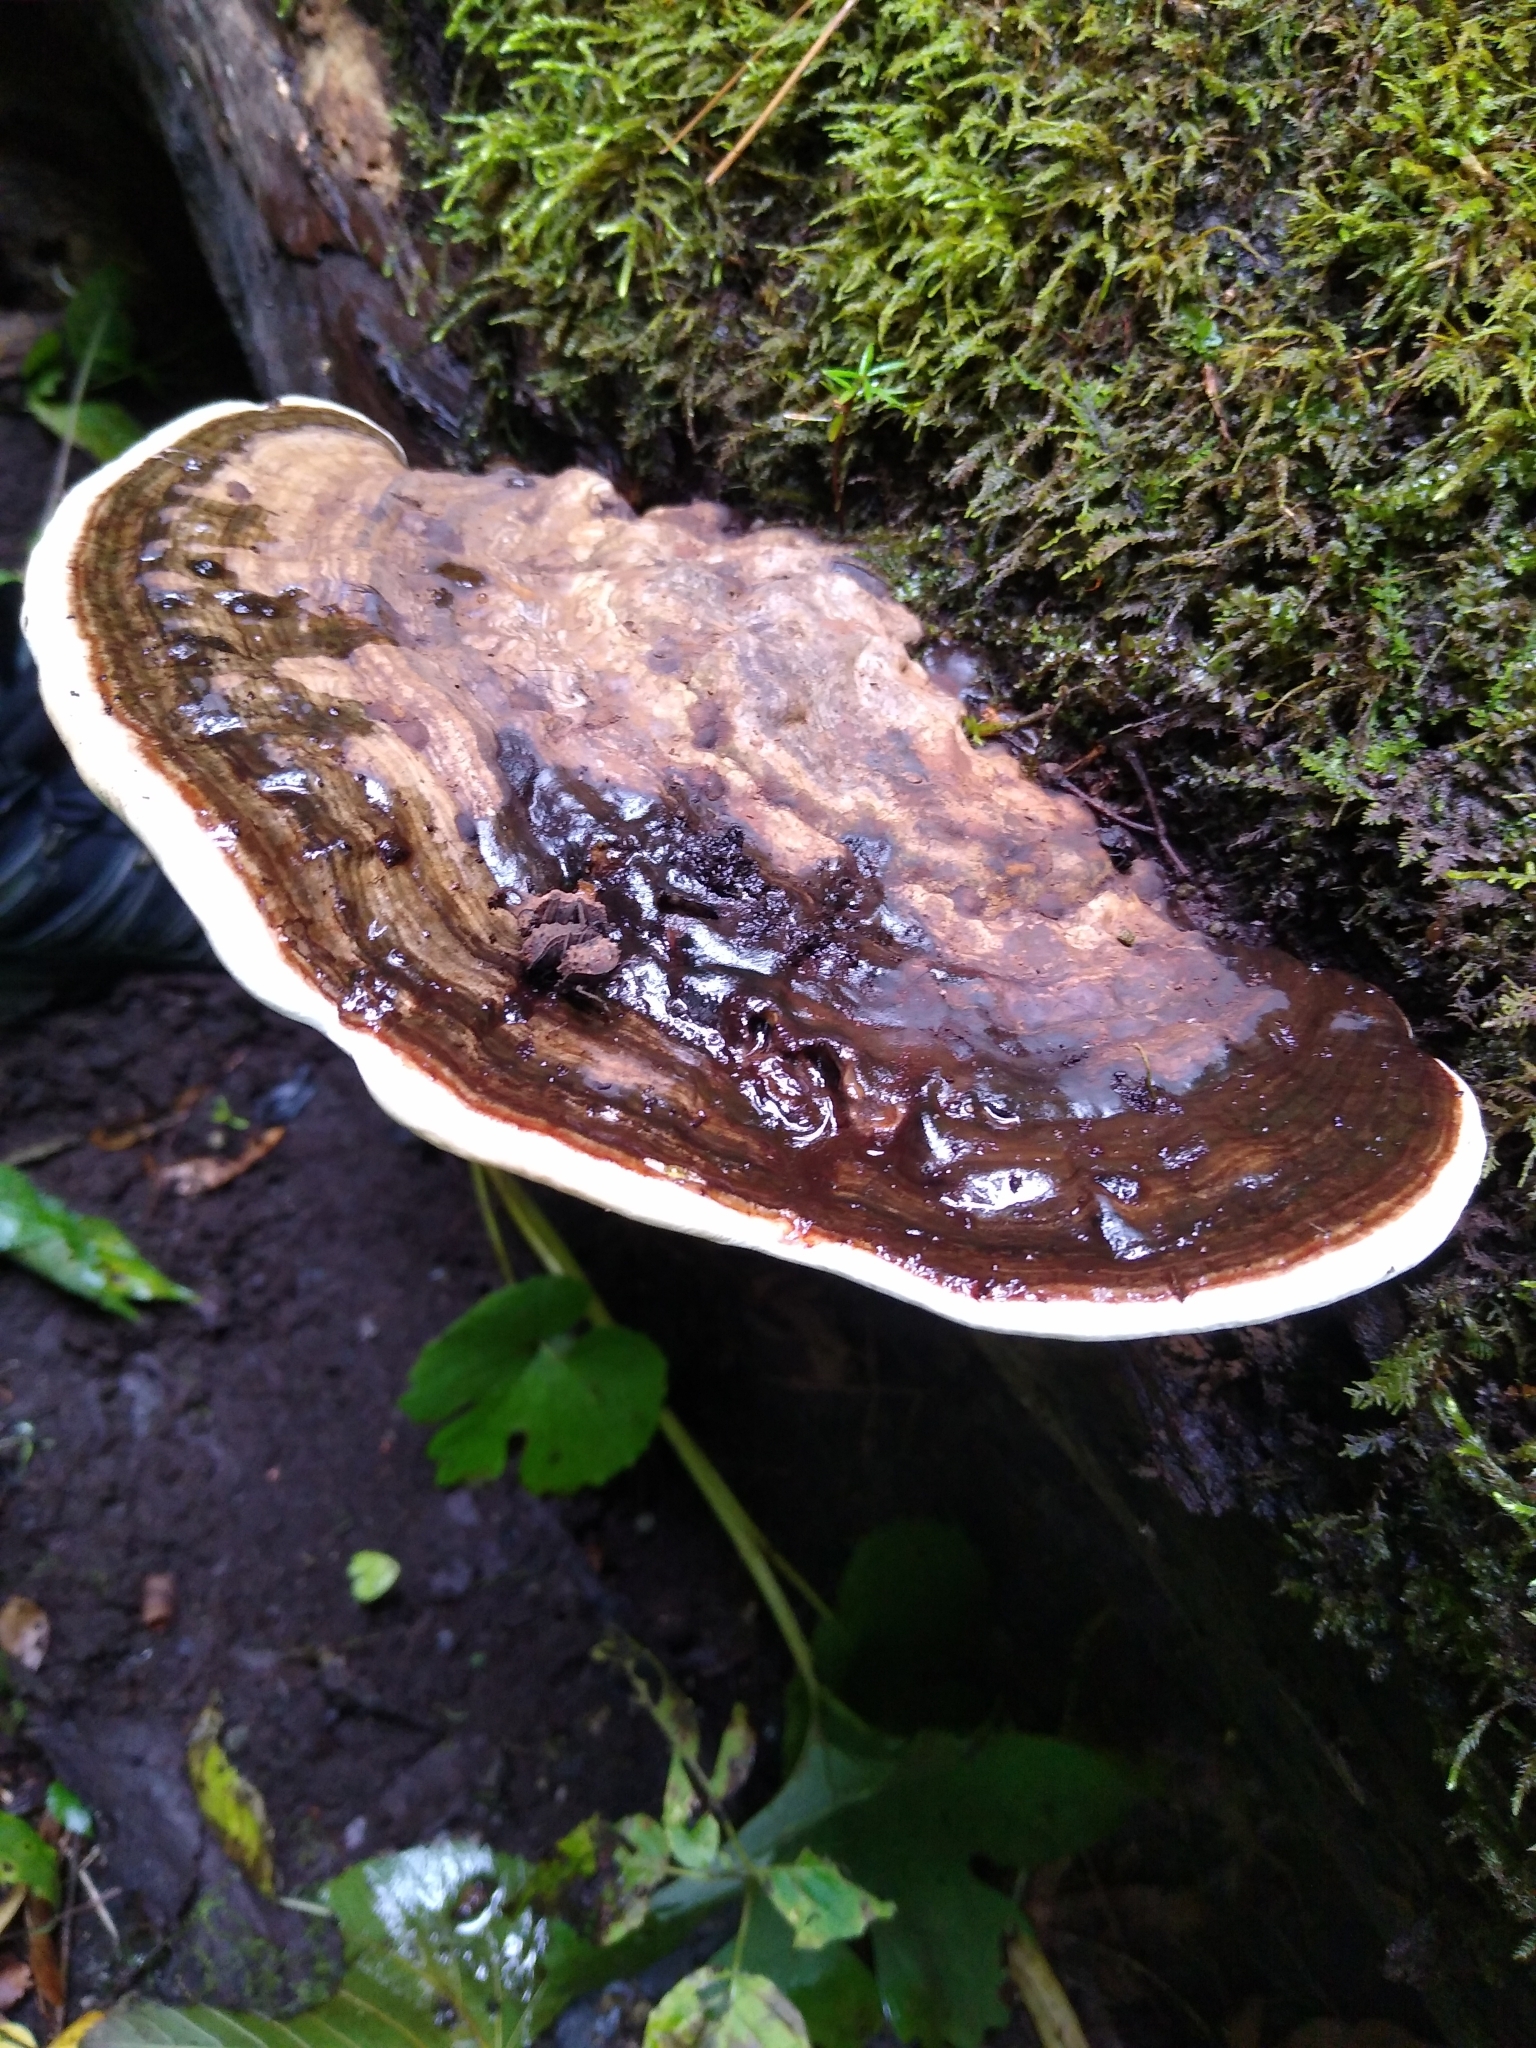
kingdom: Fungi
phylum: Basidiomycota
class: Agaricomycetes
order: Polyporales
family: Polyporaceae
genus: Ganoderma
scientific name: Ganoderma applanatum
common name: Artist's bracket
